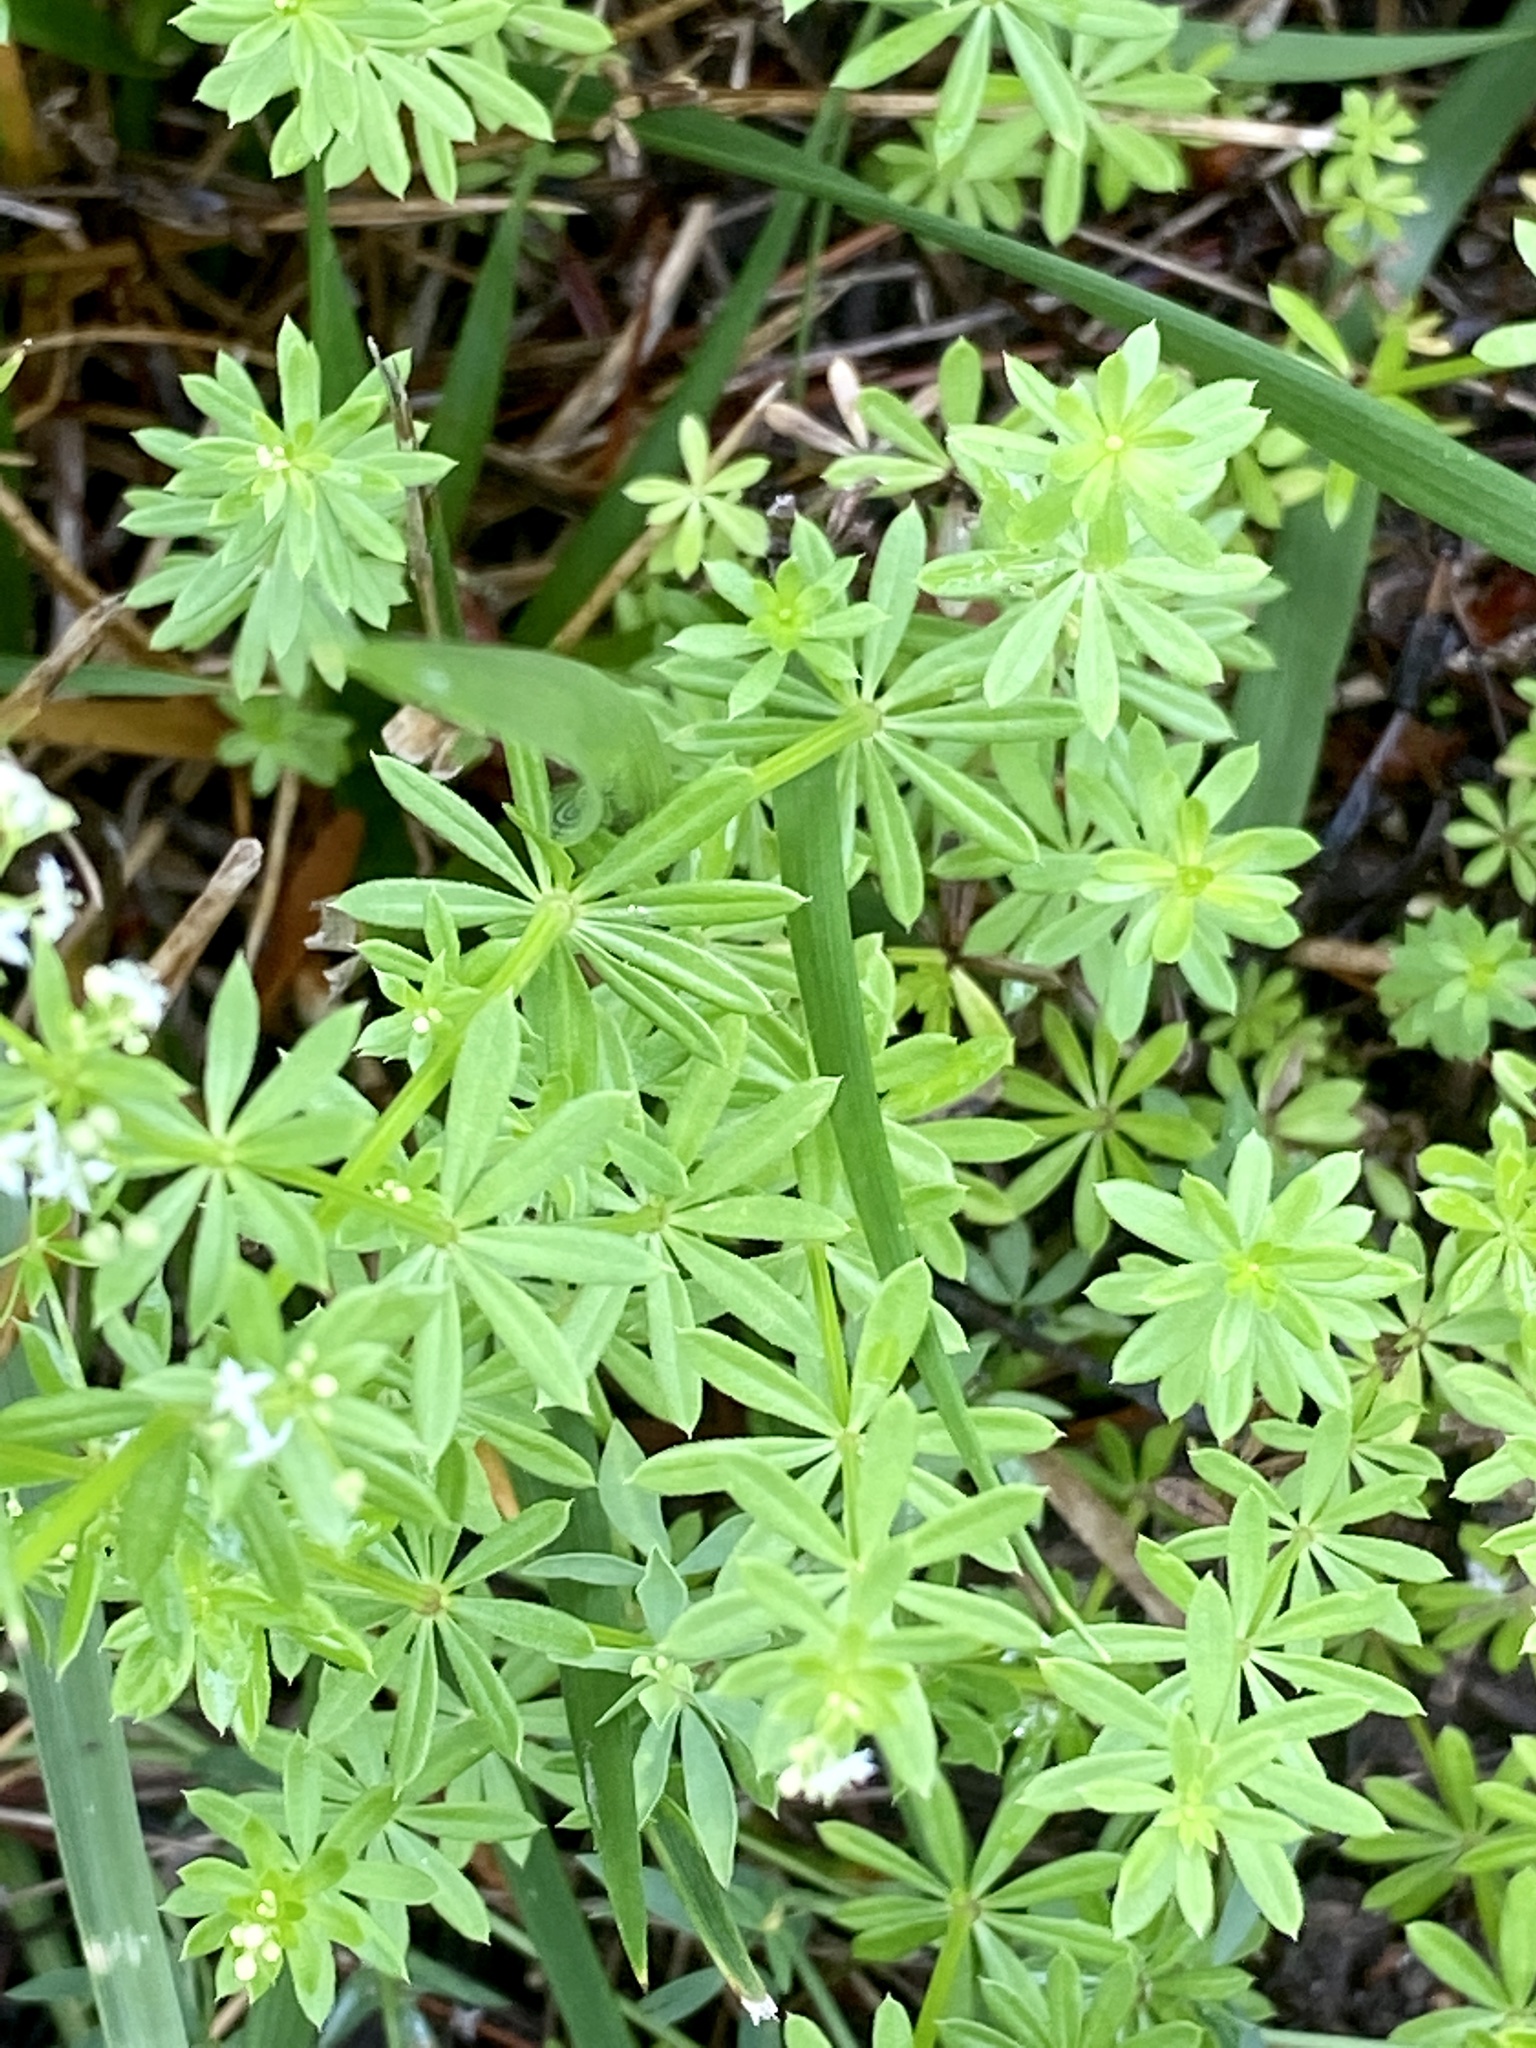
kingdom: Plantae
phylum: Tracheophyta
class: Magnoliopsida
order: Gentianales
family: Rubiaceae
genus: Galium
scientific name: Galium mollugo
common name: Hedge bedstraw
